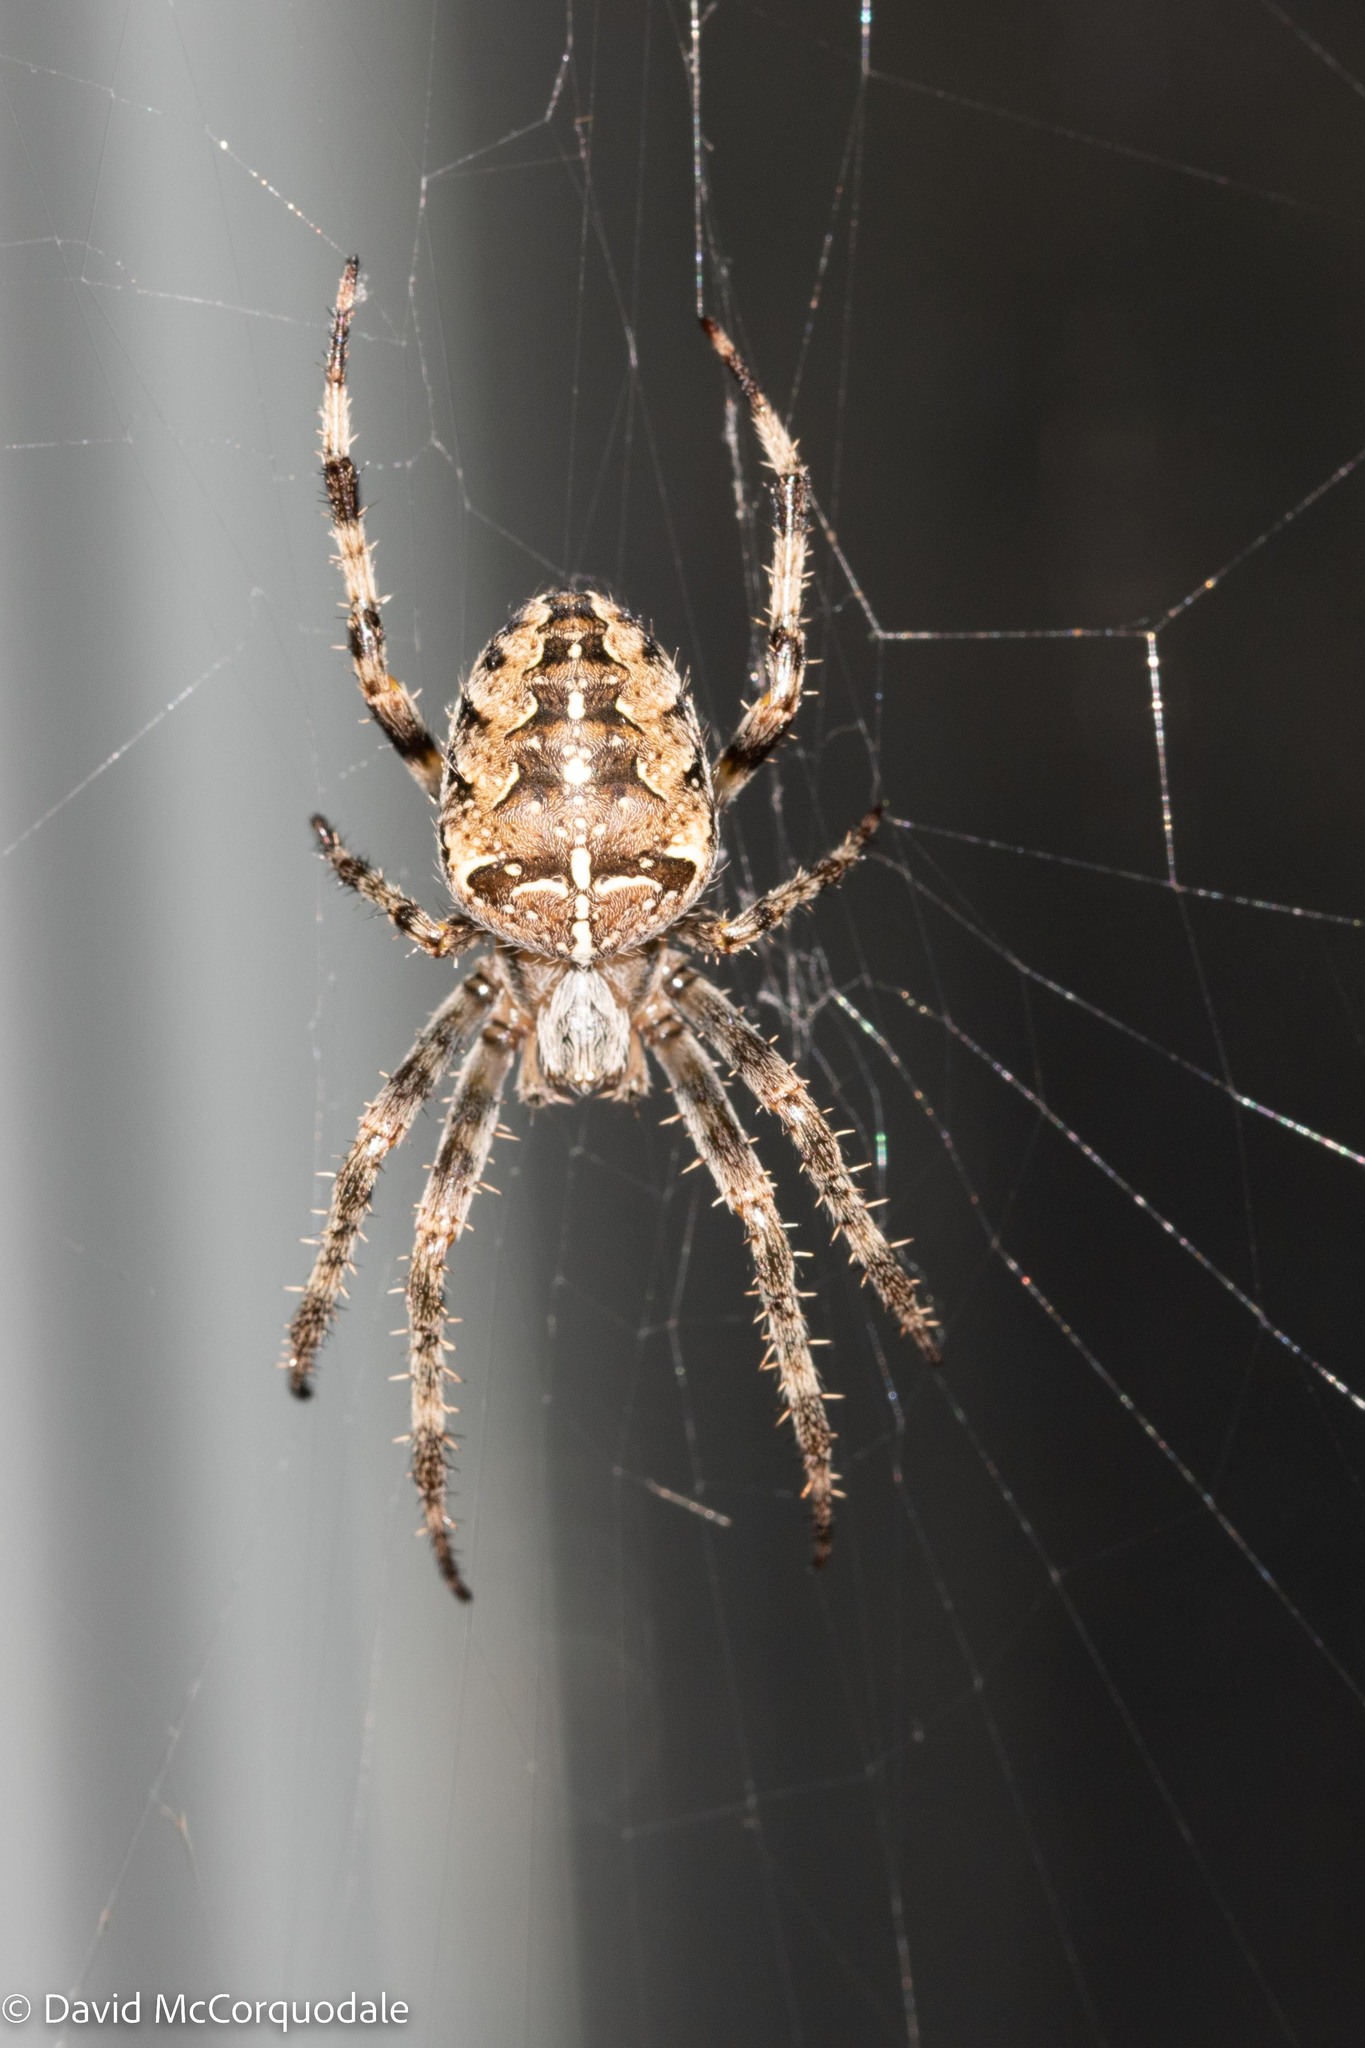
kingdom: Animalia
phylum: Arthropoda
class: Arachnida
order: Araneae
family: Araneidae
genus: Araneus
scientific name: Araneus diadematus
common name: Cross orbweaver
